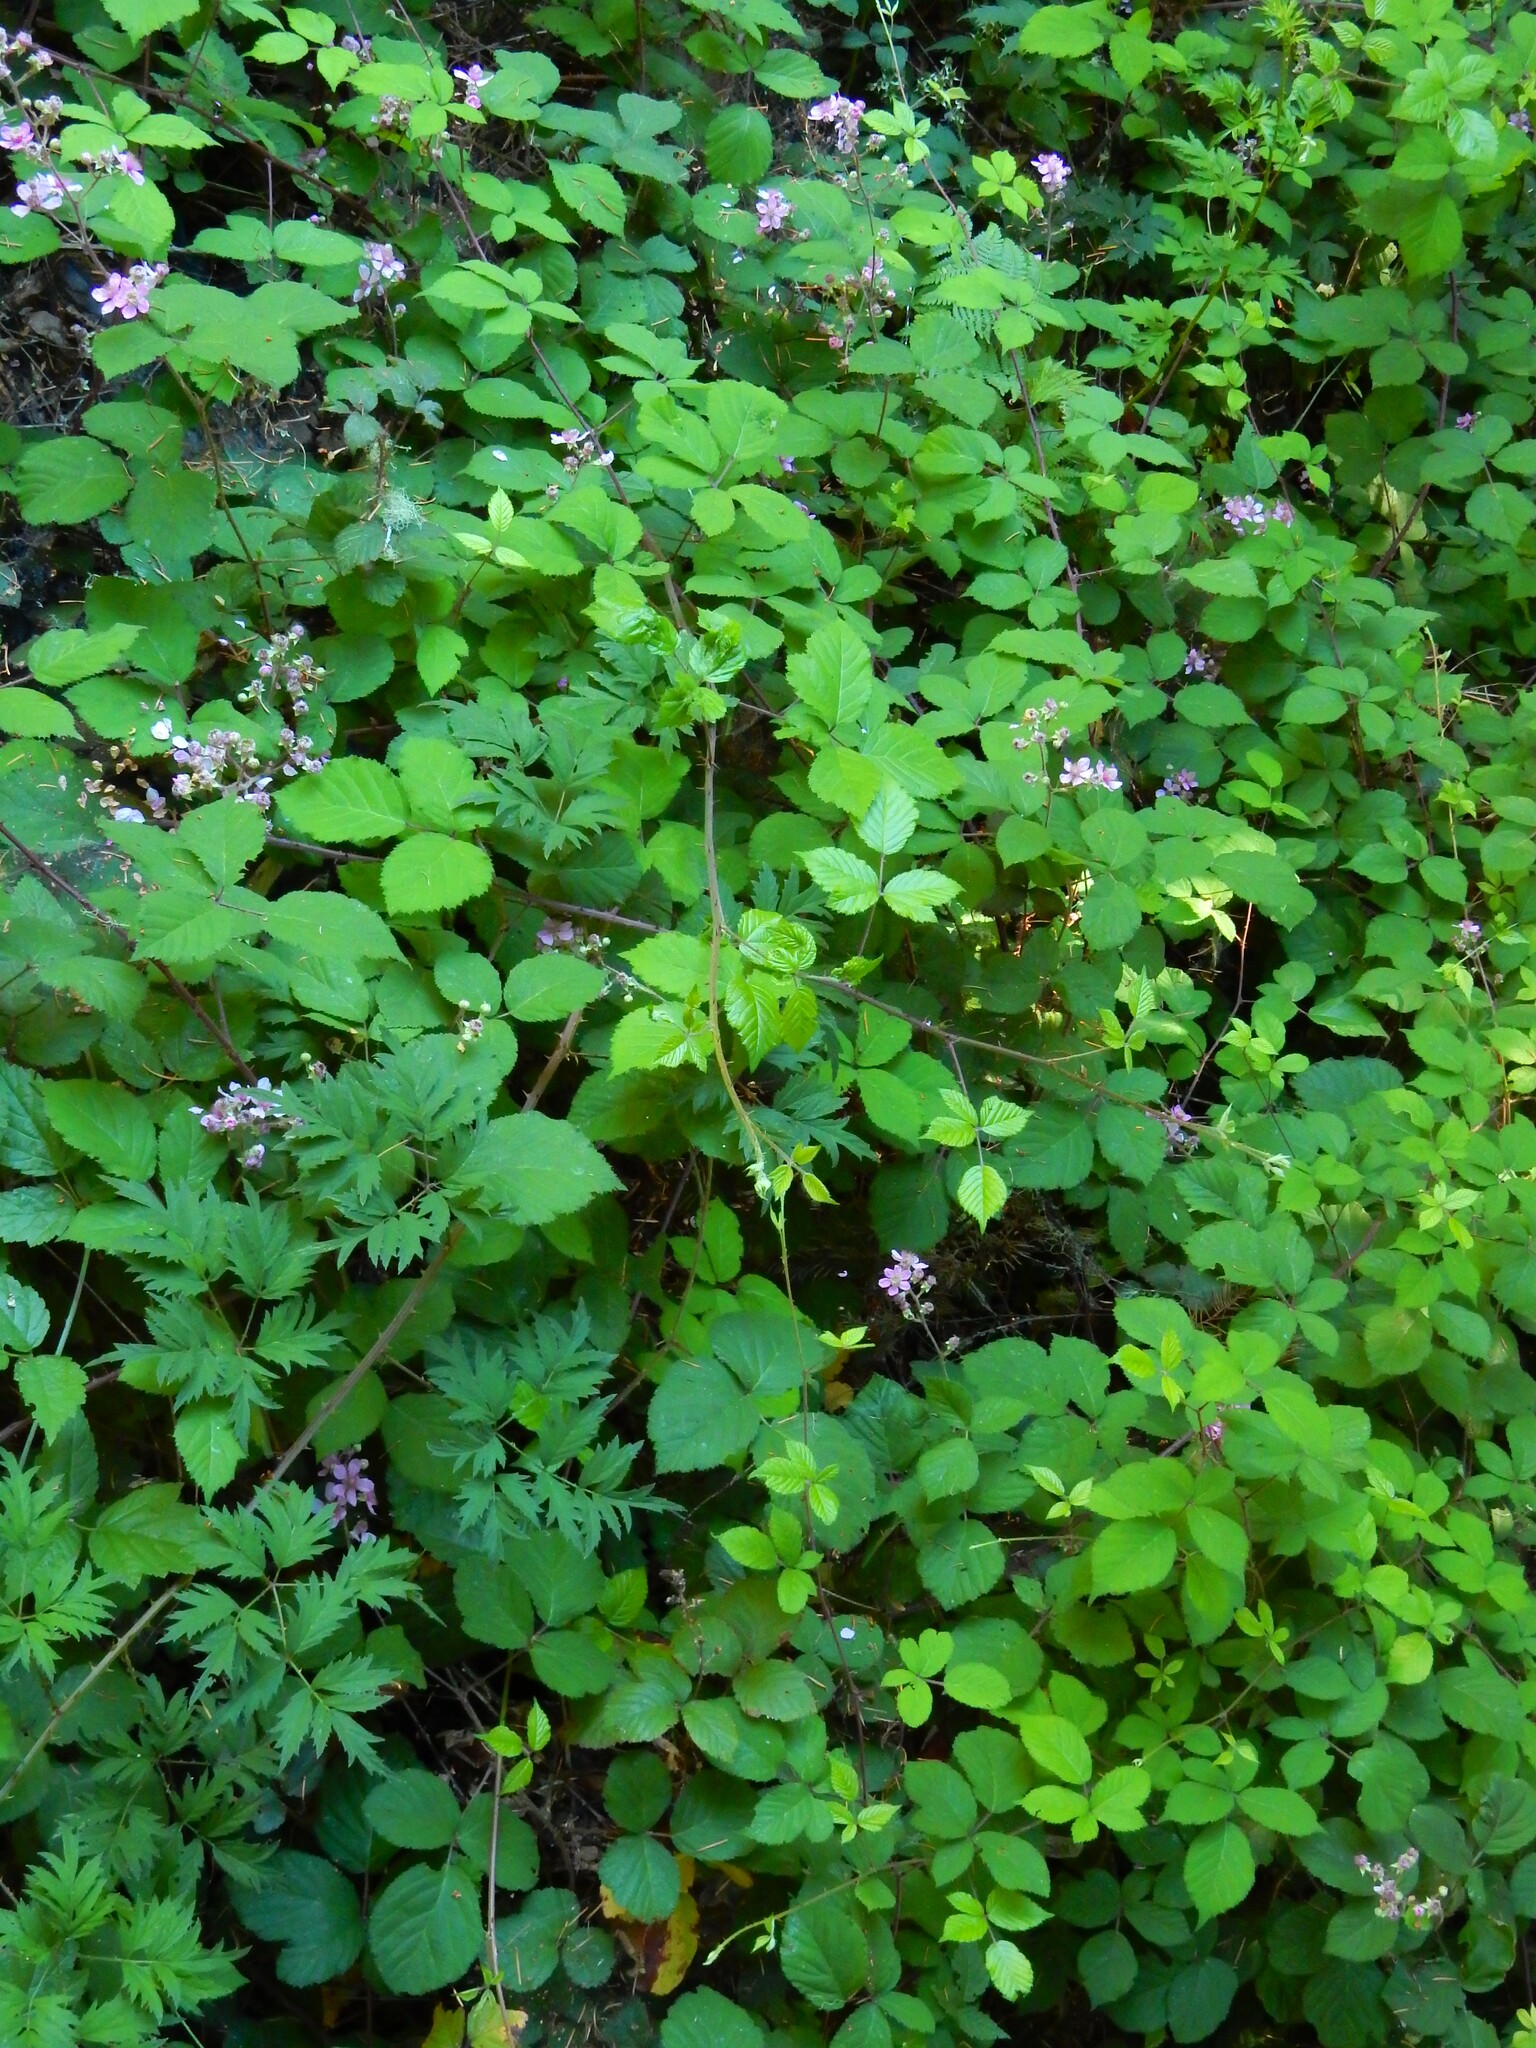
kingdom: Plantae
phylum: Tracheophyta
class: Magnoliopsida
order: Rosales
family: Rosaceae
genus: Rubus
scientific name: Rubus vestitus
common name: European blackberry
